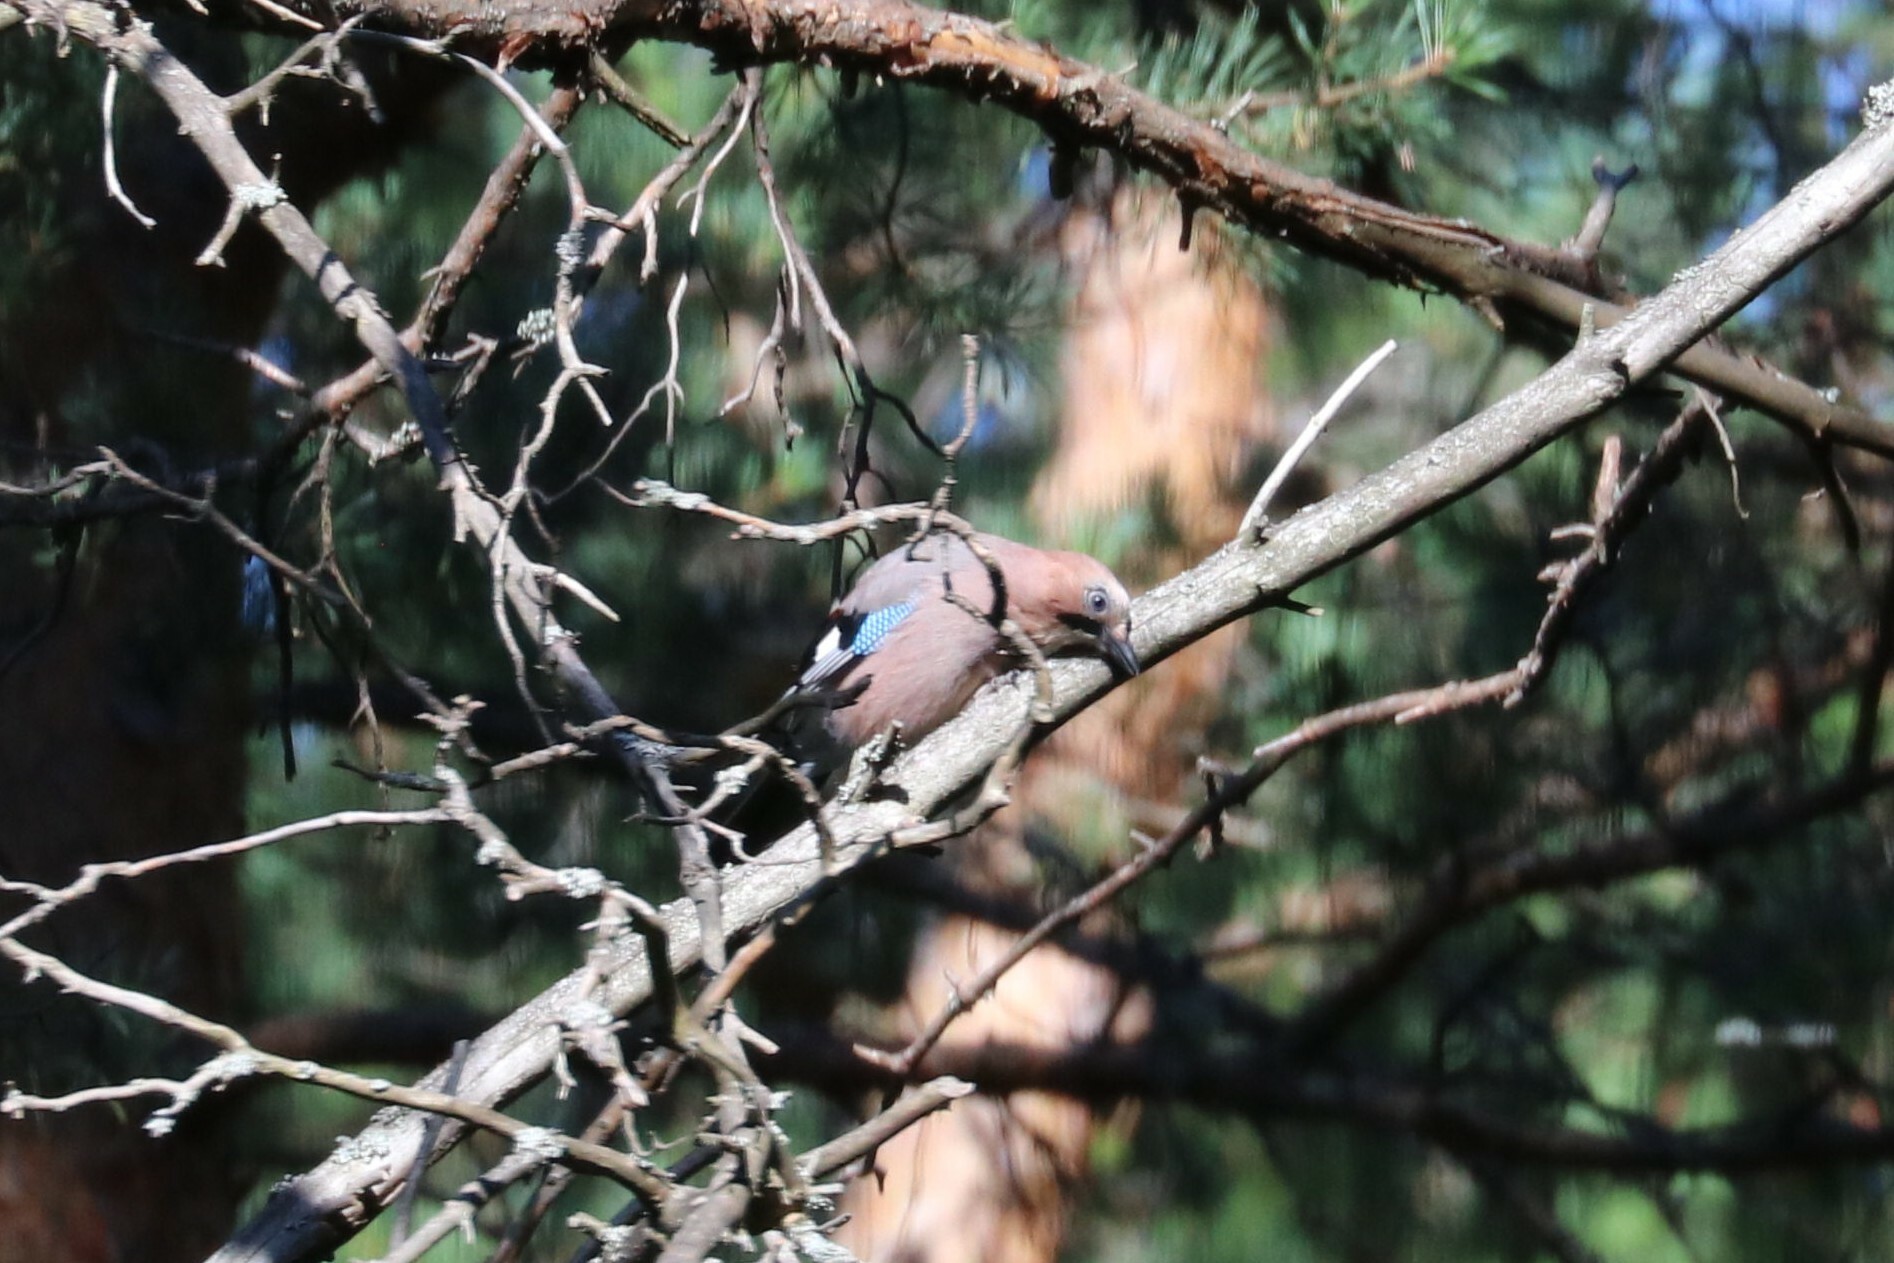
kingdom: Animalia
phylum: Chordata
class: Aves
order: Passeriformes
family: Corvidae
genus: Garrulus
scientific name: Garrulus glandarius
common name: Eurasian jay
